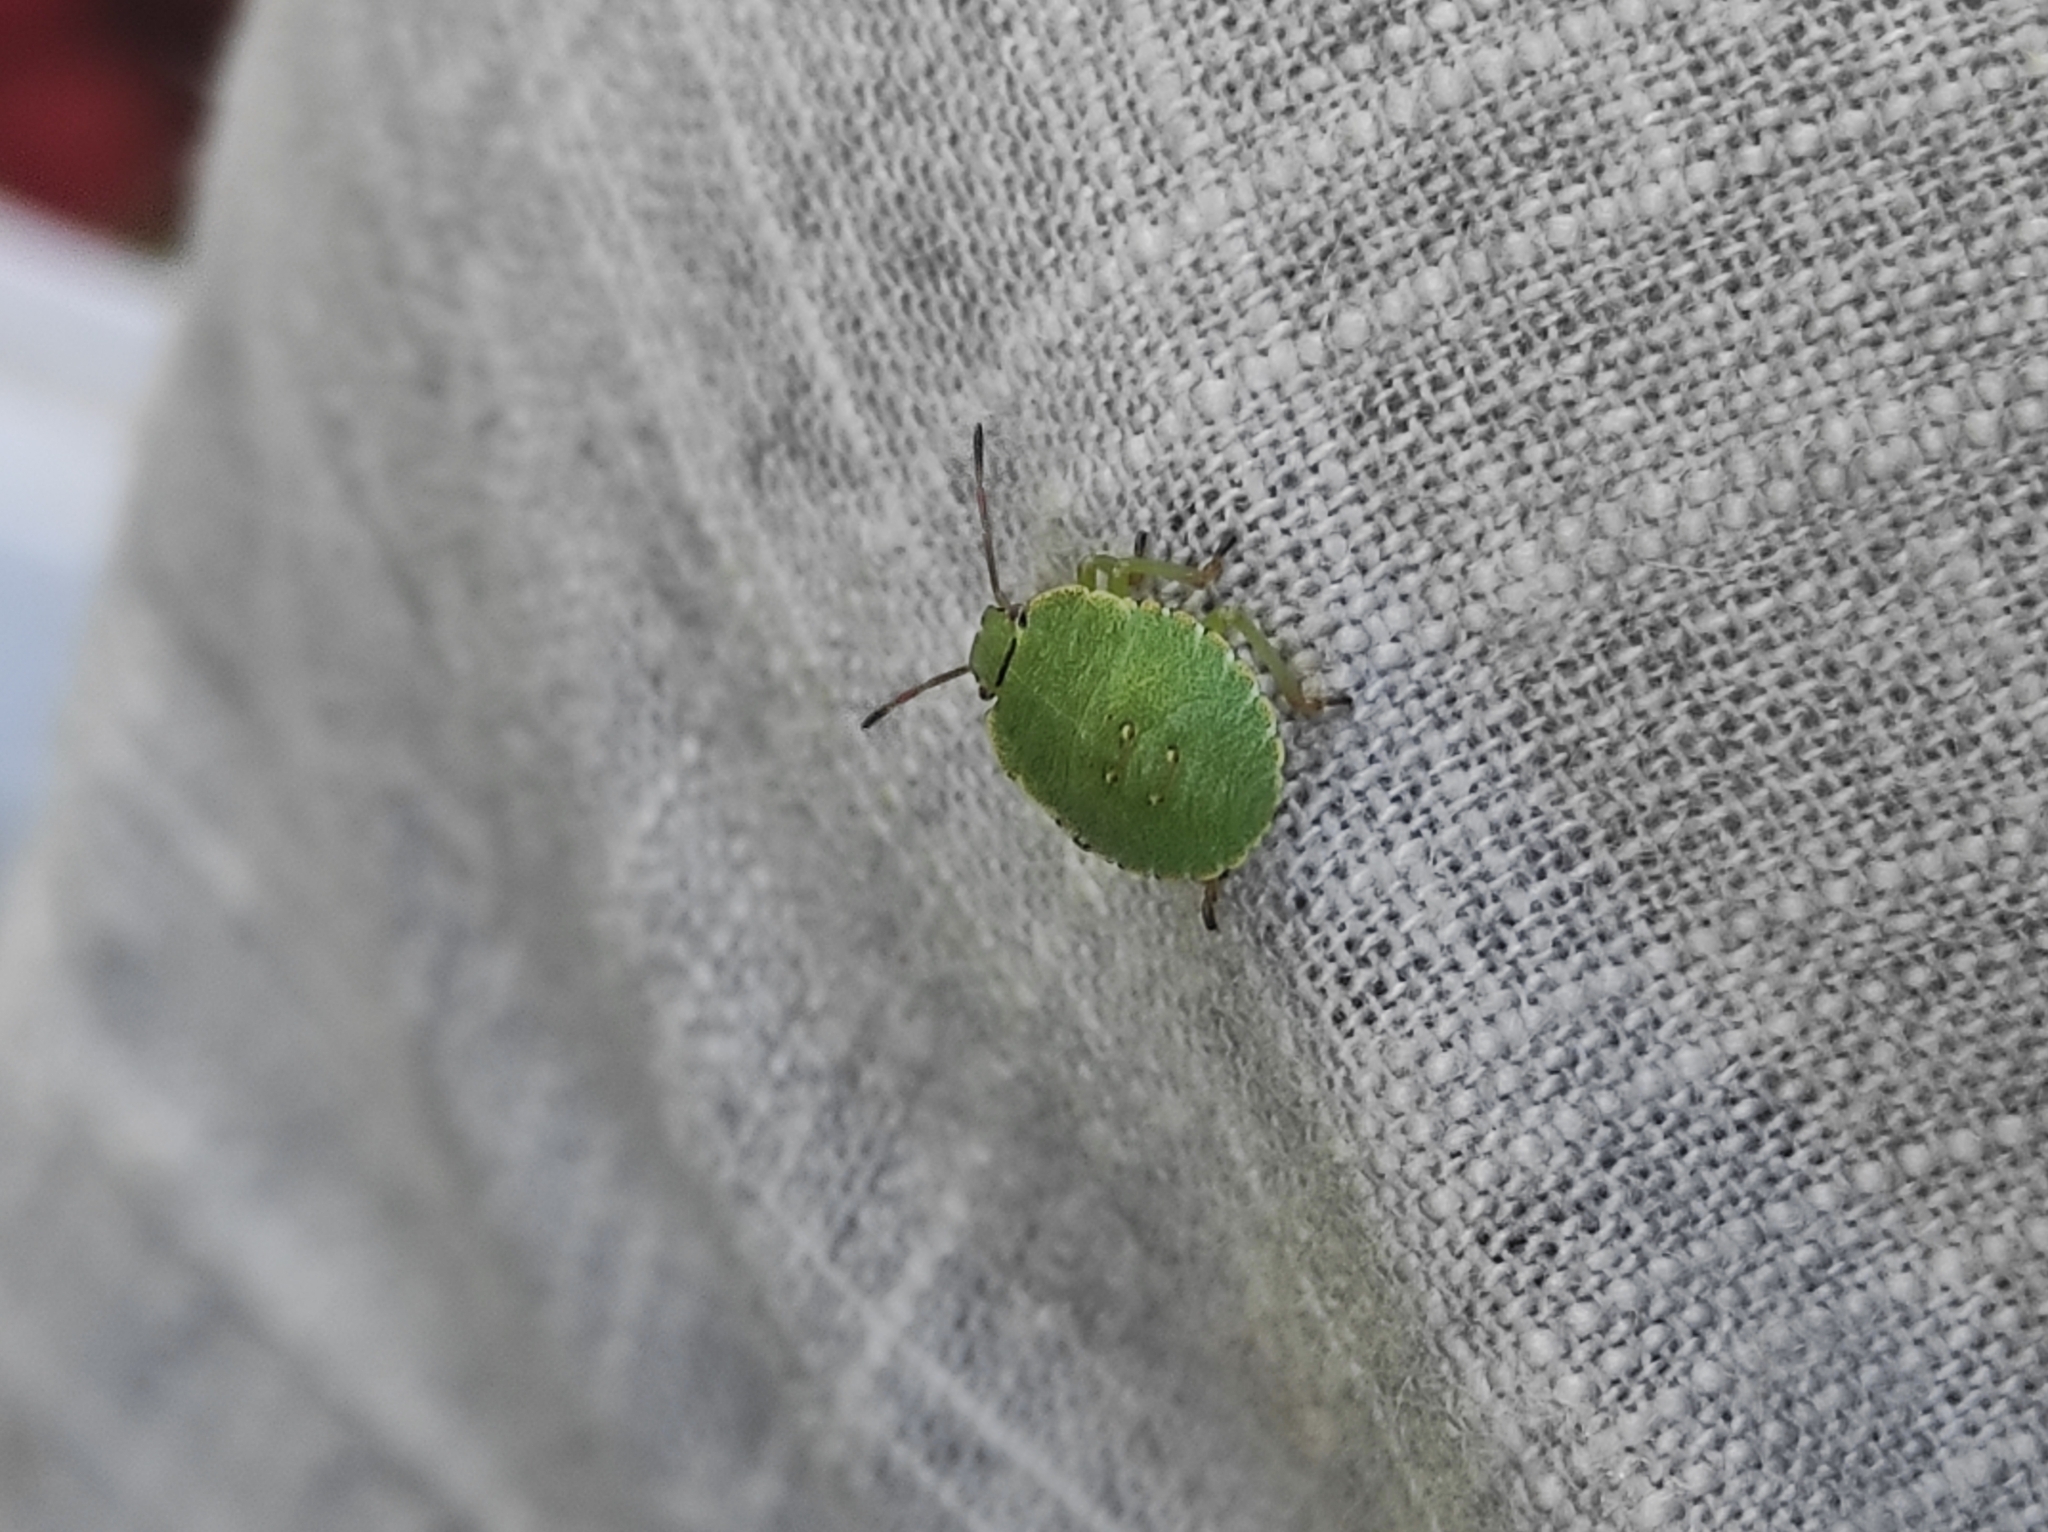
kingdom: Animalia
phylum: Arthropoda
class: Insecta
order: Hemiptera
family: Pentatomidae
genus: Palomena
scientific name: Palomena prasina
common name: Green shieldbug
